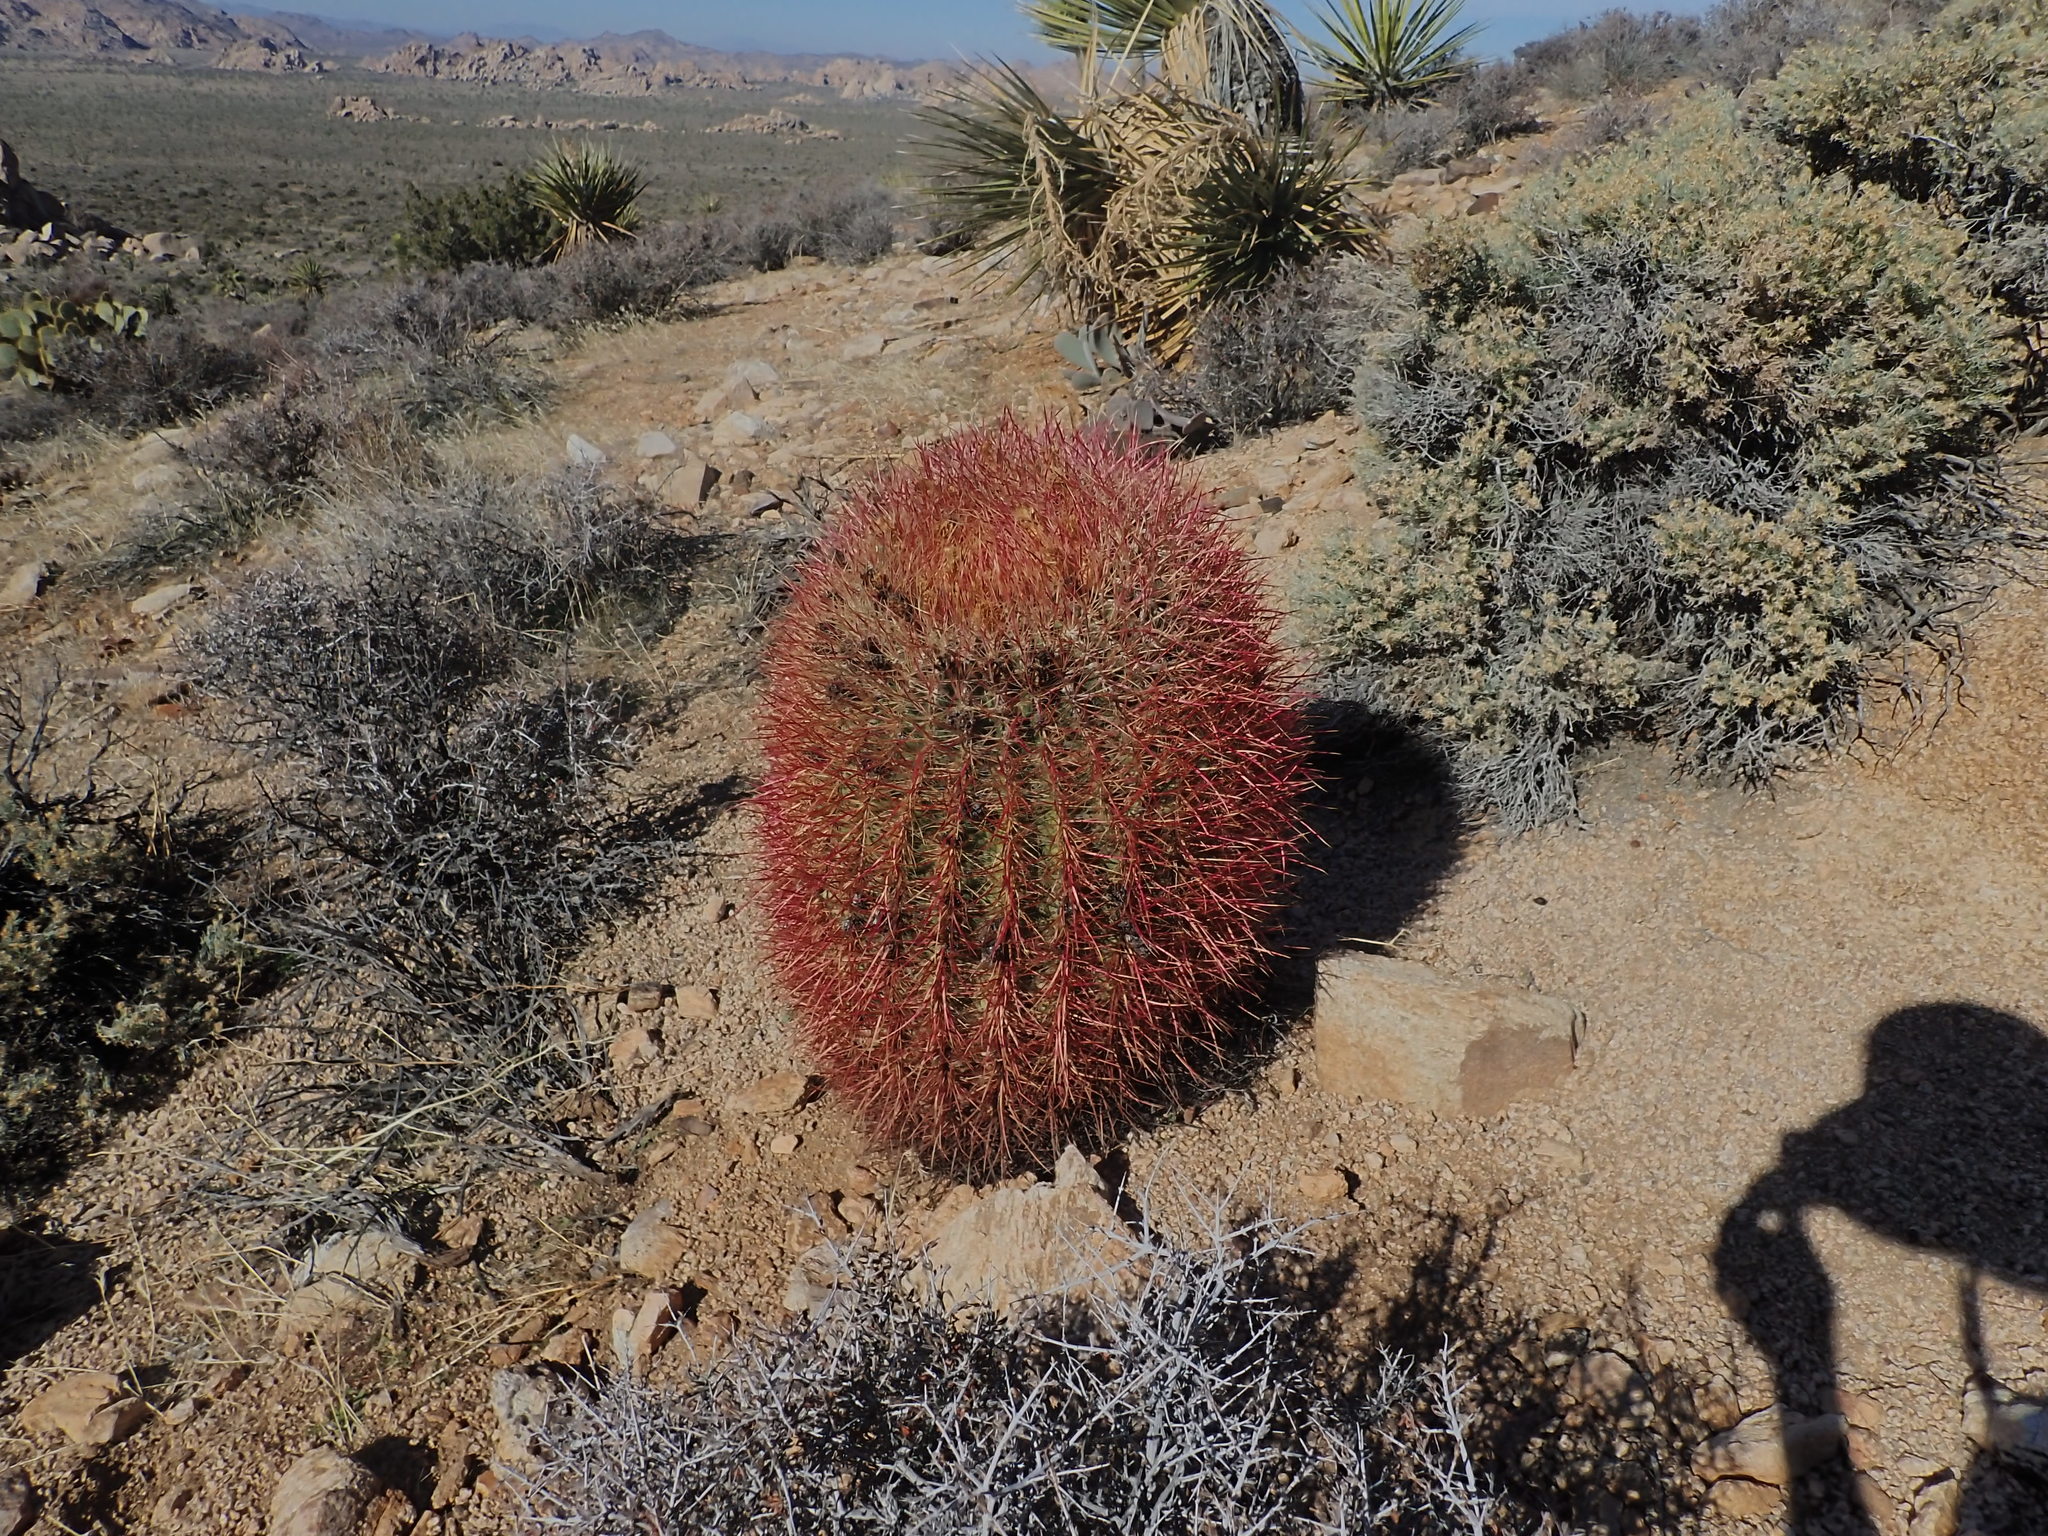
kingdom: Plantae
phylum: Tracheophyta
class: Magnoliopsida
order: Caryophyllales
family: Cactaceae
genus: Ferocactus
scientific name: Ferocactus cylindraceus
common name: California barrel cactus
